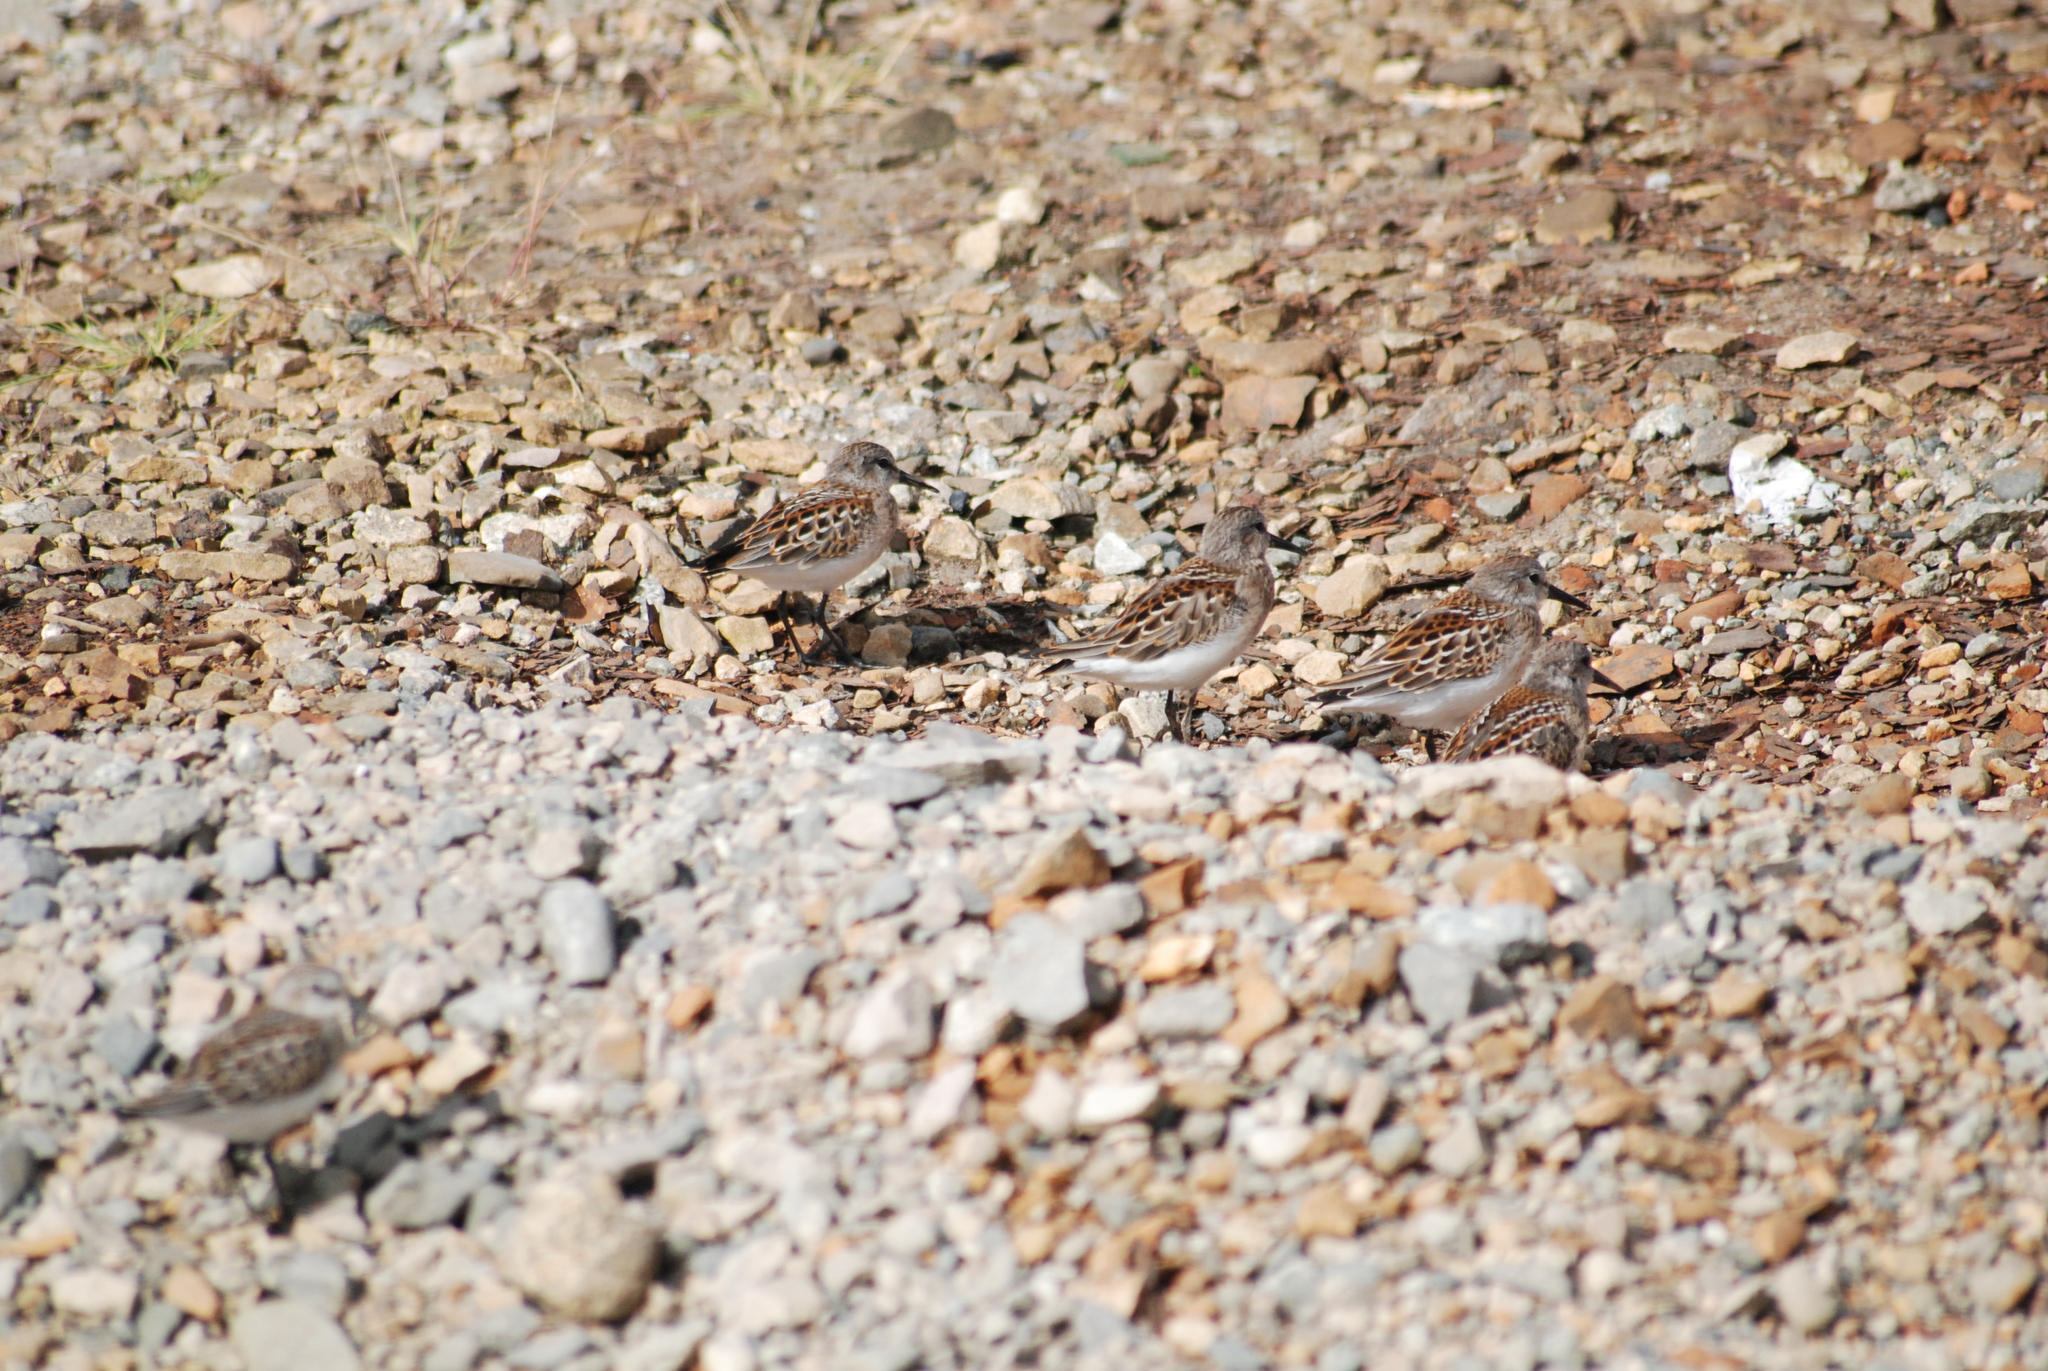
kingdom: Animalia
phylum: Chordata
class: Aves
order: Charadriiformes
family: Scolopacidae
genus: Calidris
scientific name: Calidris mauri
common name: Western sandpiper
